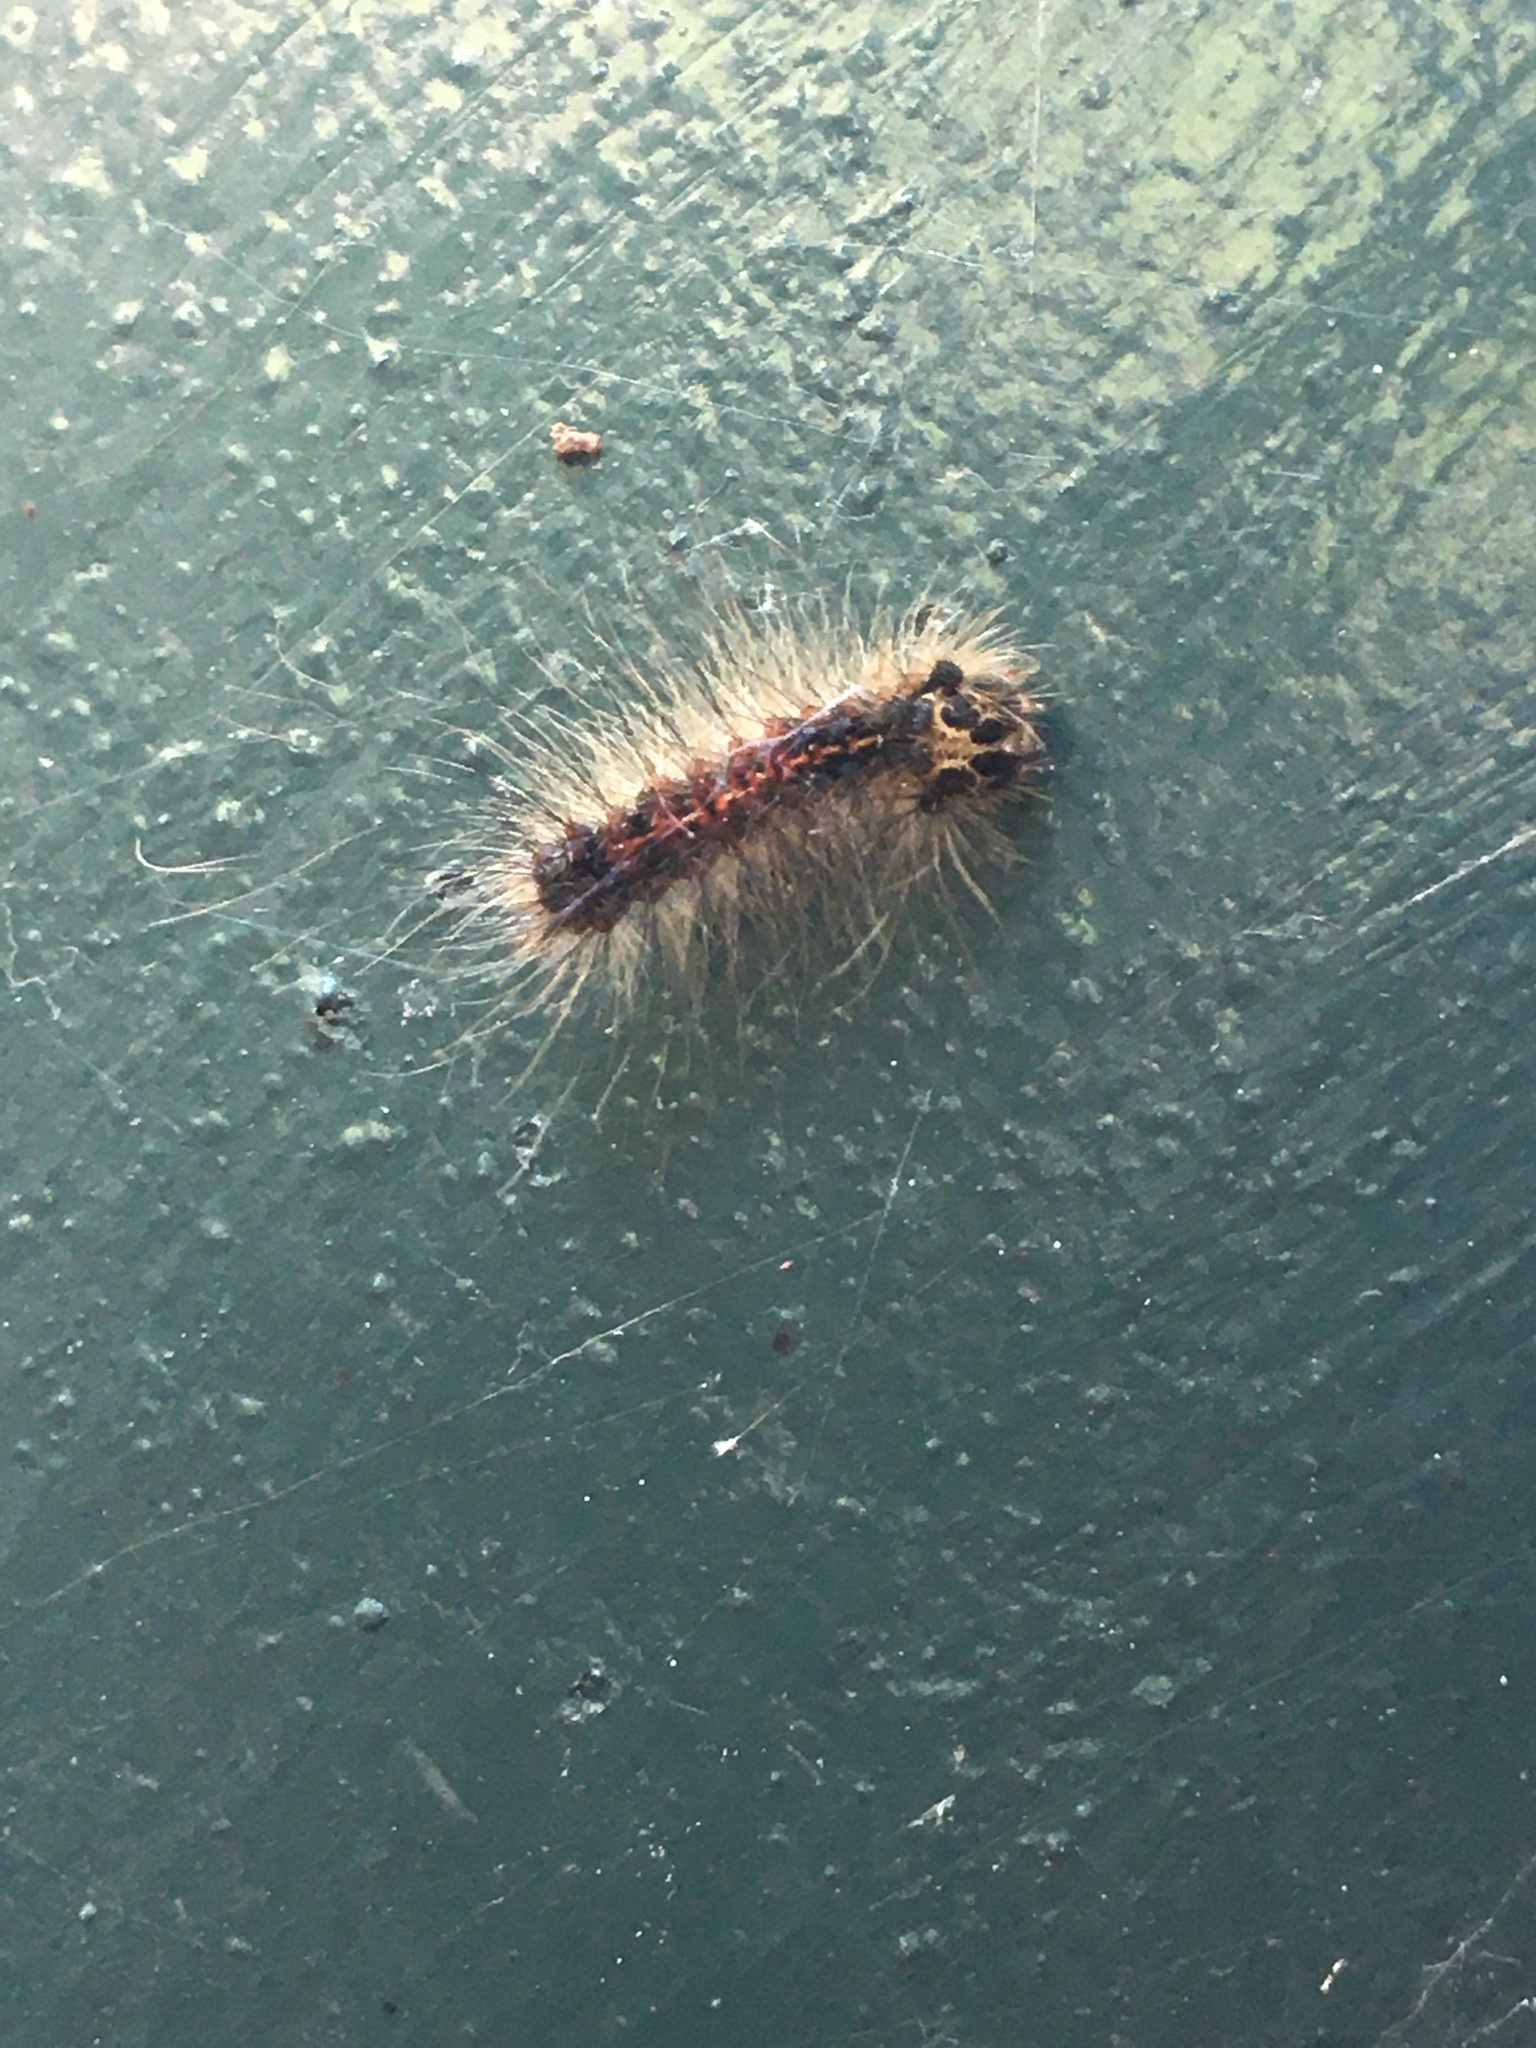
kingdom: Animalia
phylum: Arthropoda
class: Insecta
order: Lepidoptera
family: Erebidae
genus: Lymantria
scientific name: Lymantria dispar
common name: Gypsy moth
